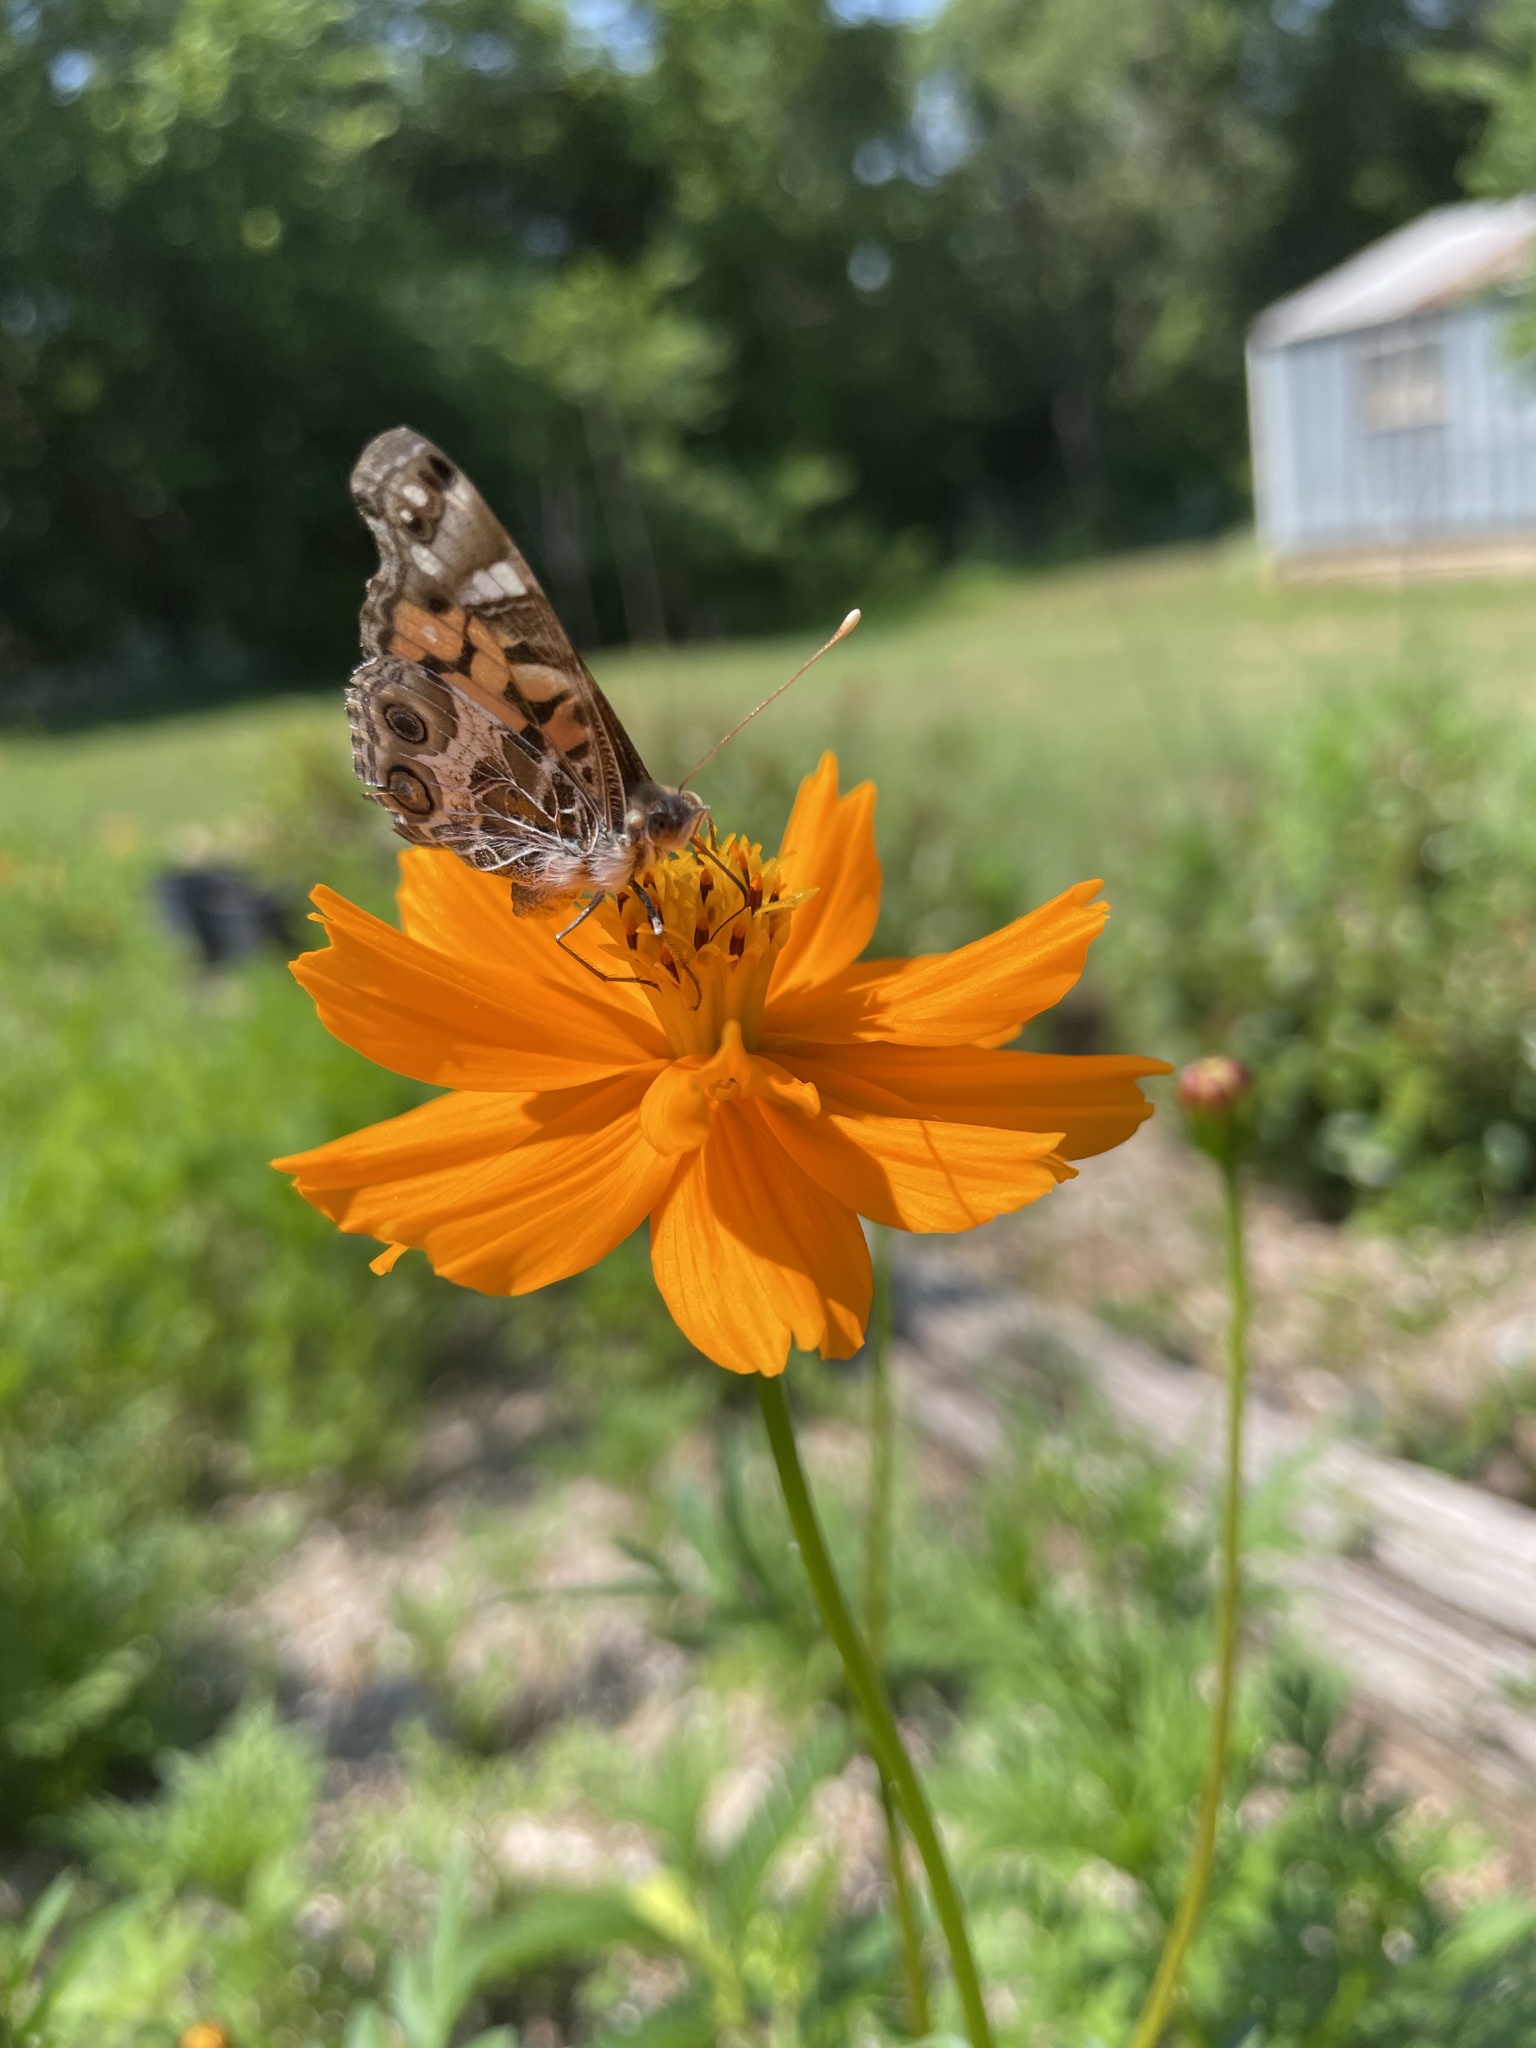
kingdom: Animalia
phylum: Arthropoda
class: Insecta
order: Lepidoptera
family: Nymphalidae
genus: Vanessa
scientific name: Vanessa virginiensis
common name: American lady
